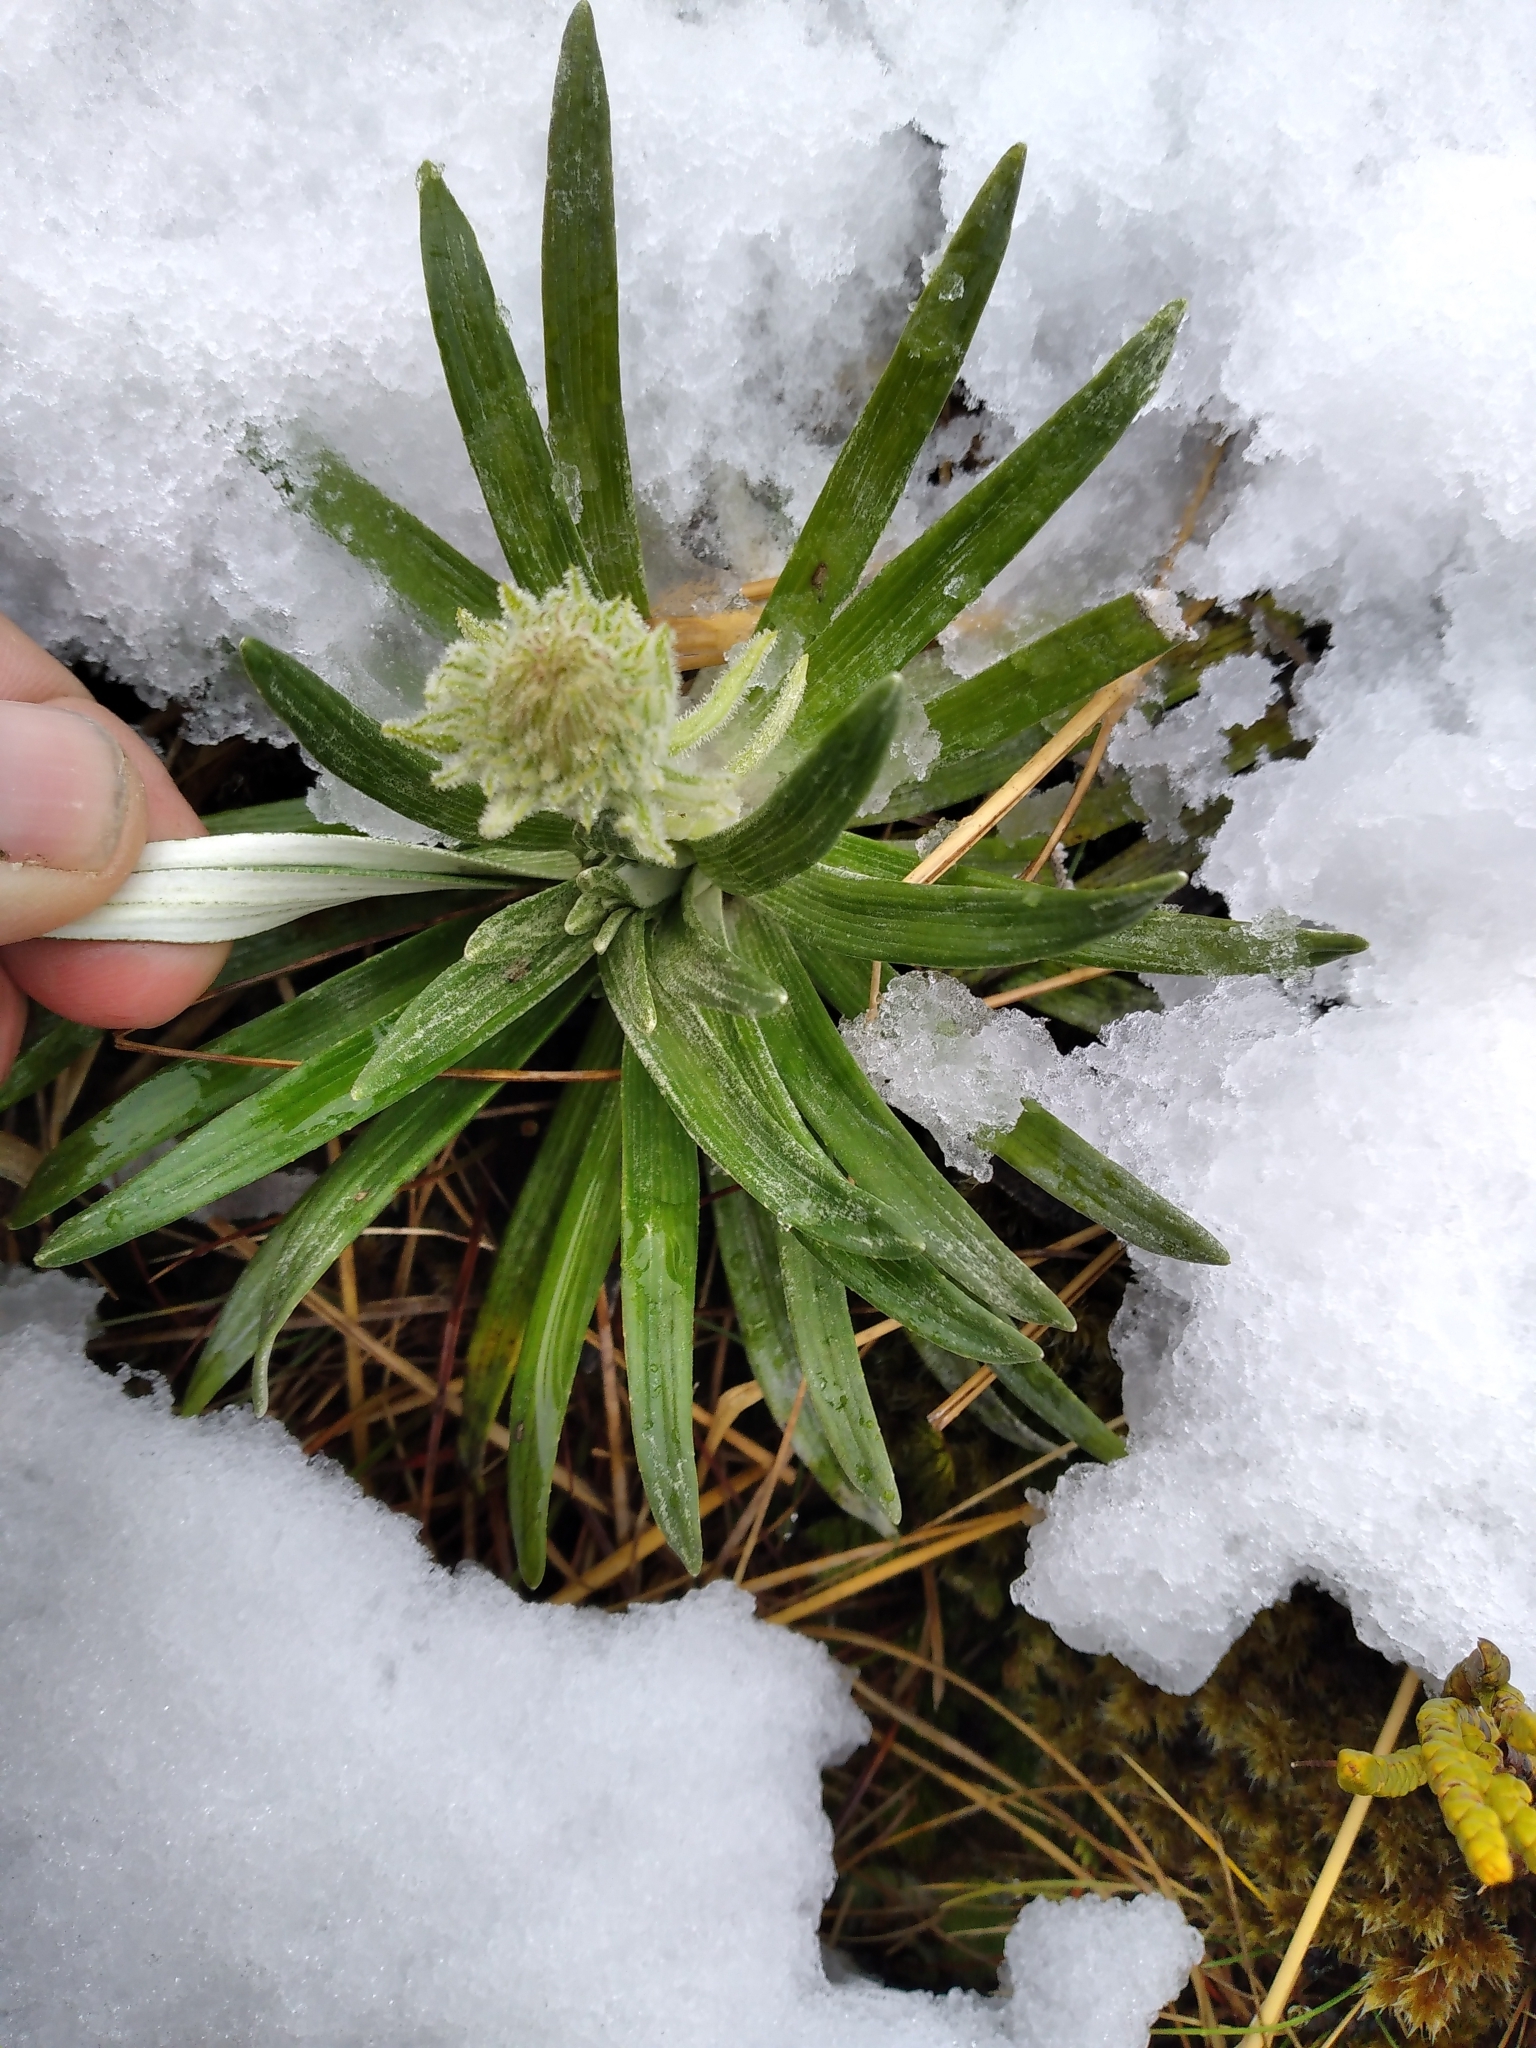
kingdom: Plantae
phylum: Tracheophyta
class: Magnoliopsida
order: Asterales
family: Asteraceae
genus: Celmisia
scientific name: Celmisia viscosa
